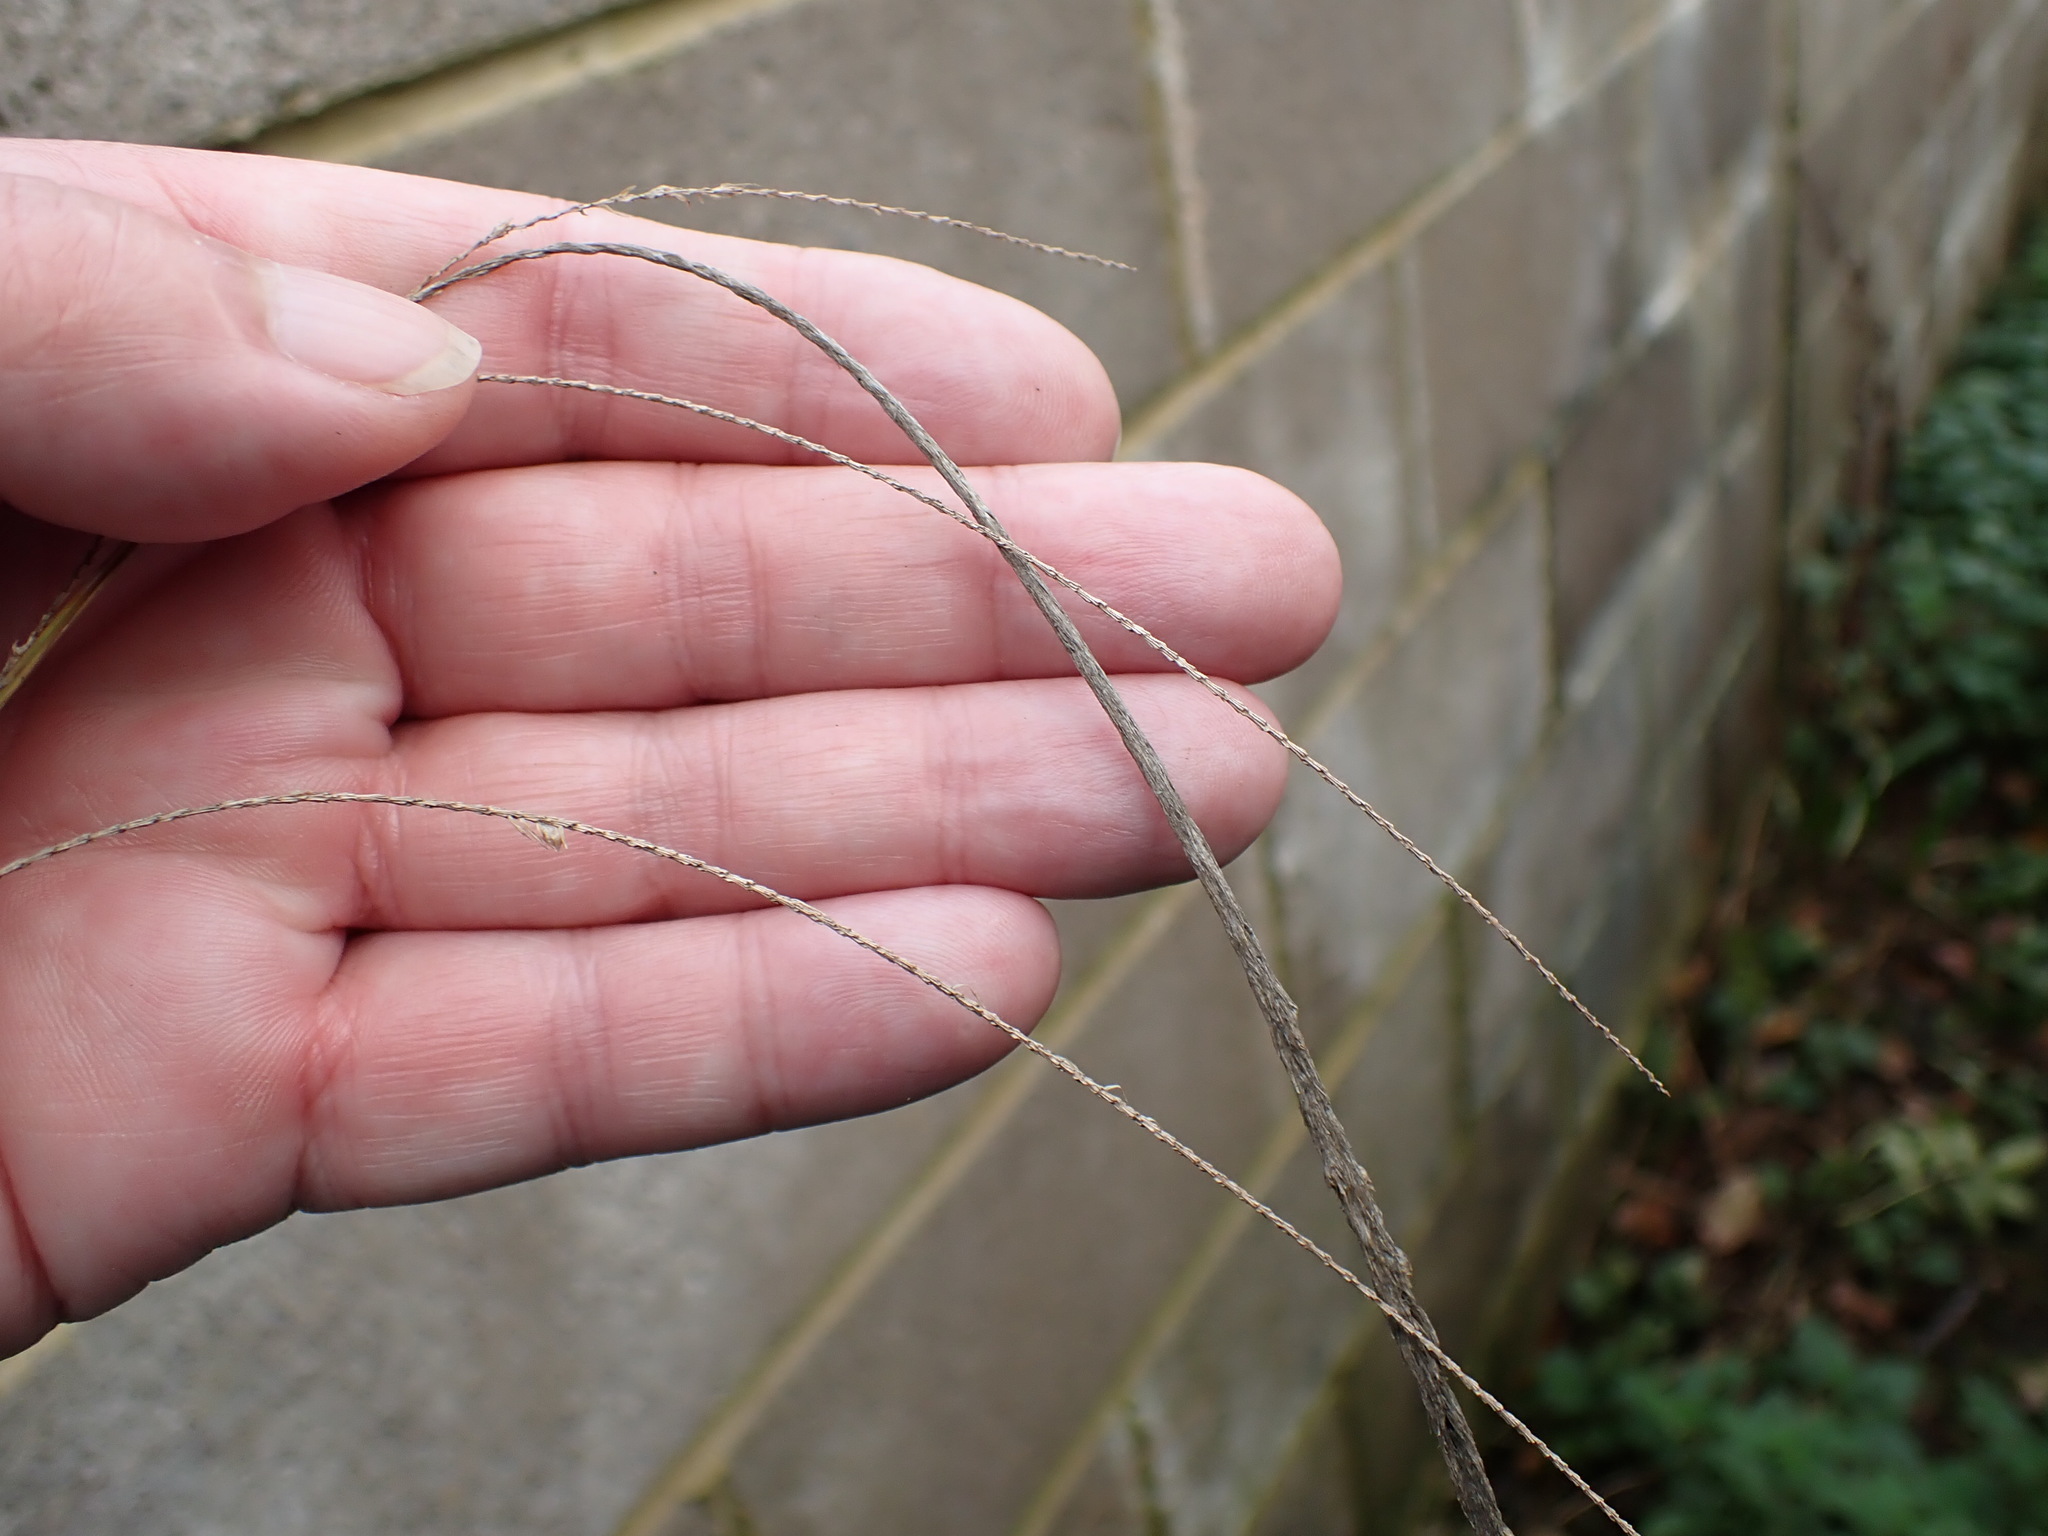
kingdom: Plantae
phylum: Tracheophyta
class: Liliopsida
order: Poales
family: Cyperaceae
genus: Carex
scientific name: Carex pendula
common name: Pendulous sedge
